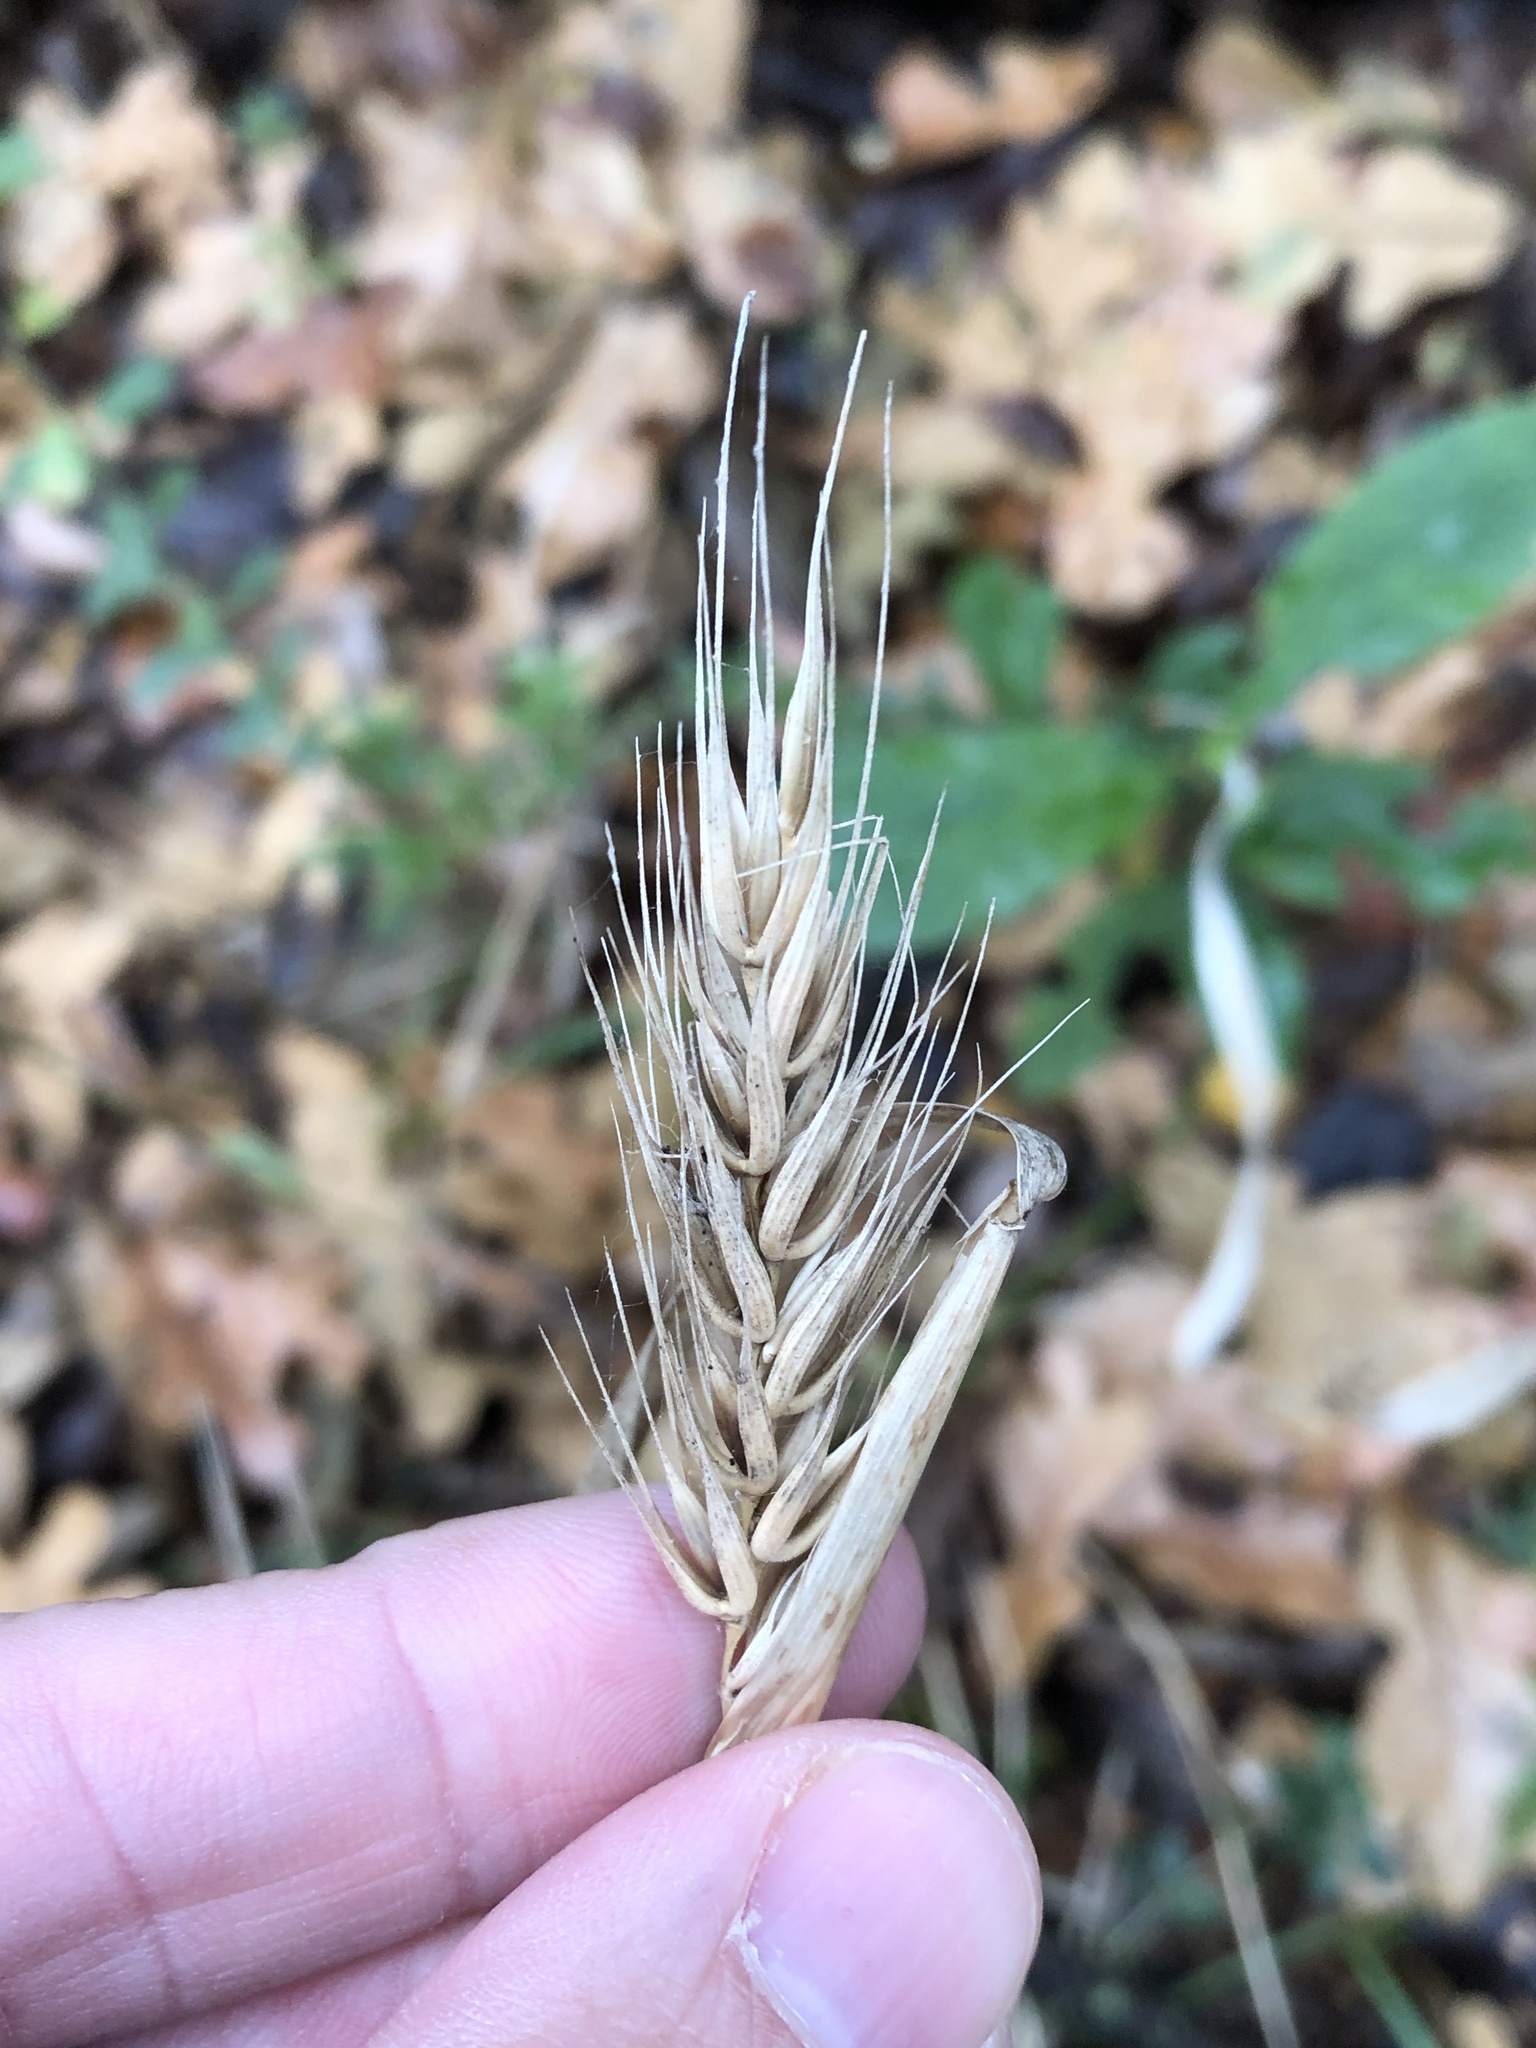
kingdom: Plantae
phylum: Tracheophyta
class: Liliopsida
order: Poales
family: Poaceae
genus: Elymus
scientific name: Elymus virginicus
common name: Common eastern wildrye
